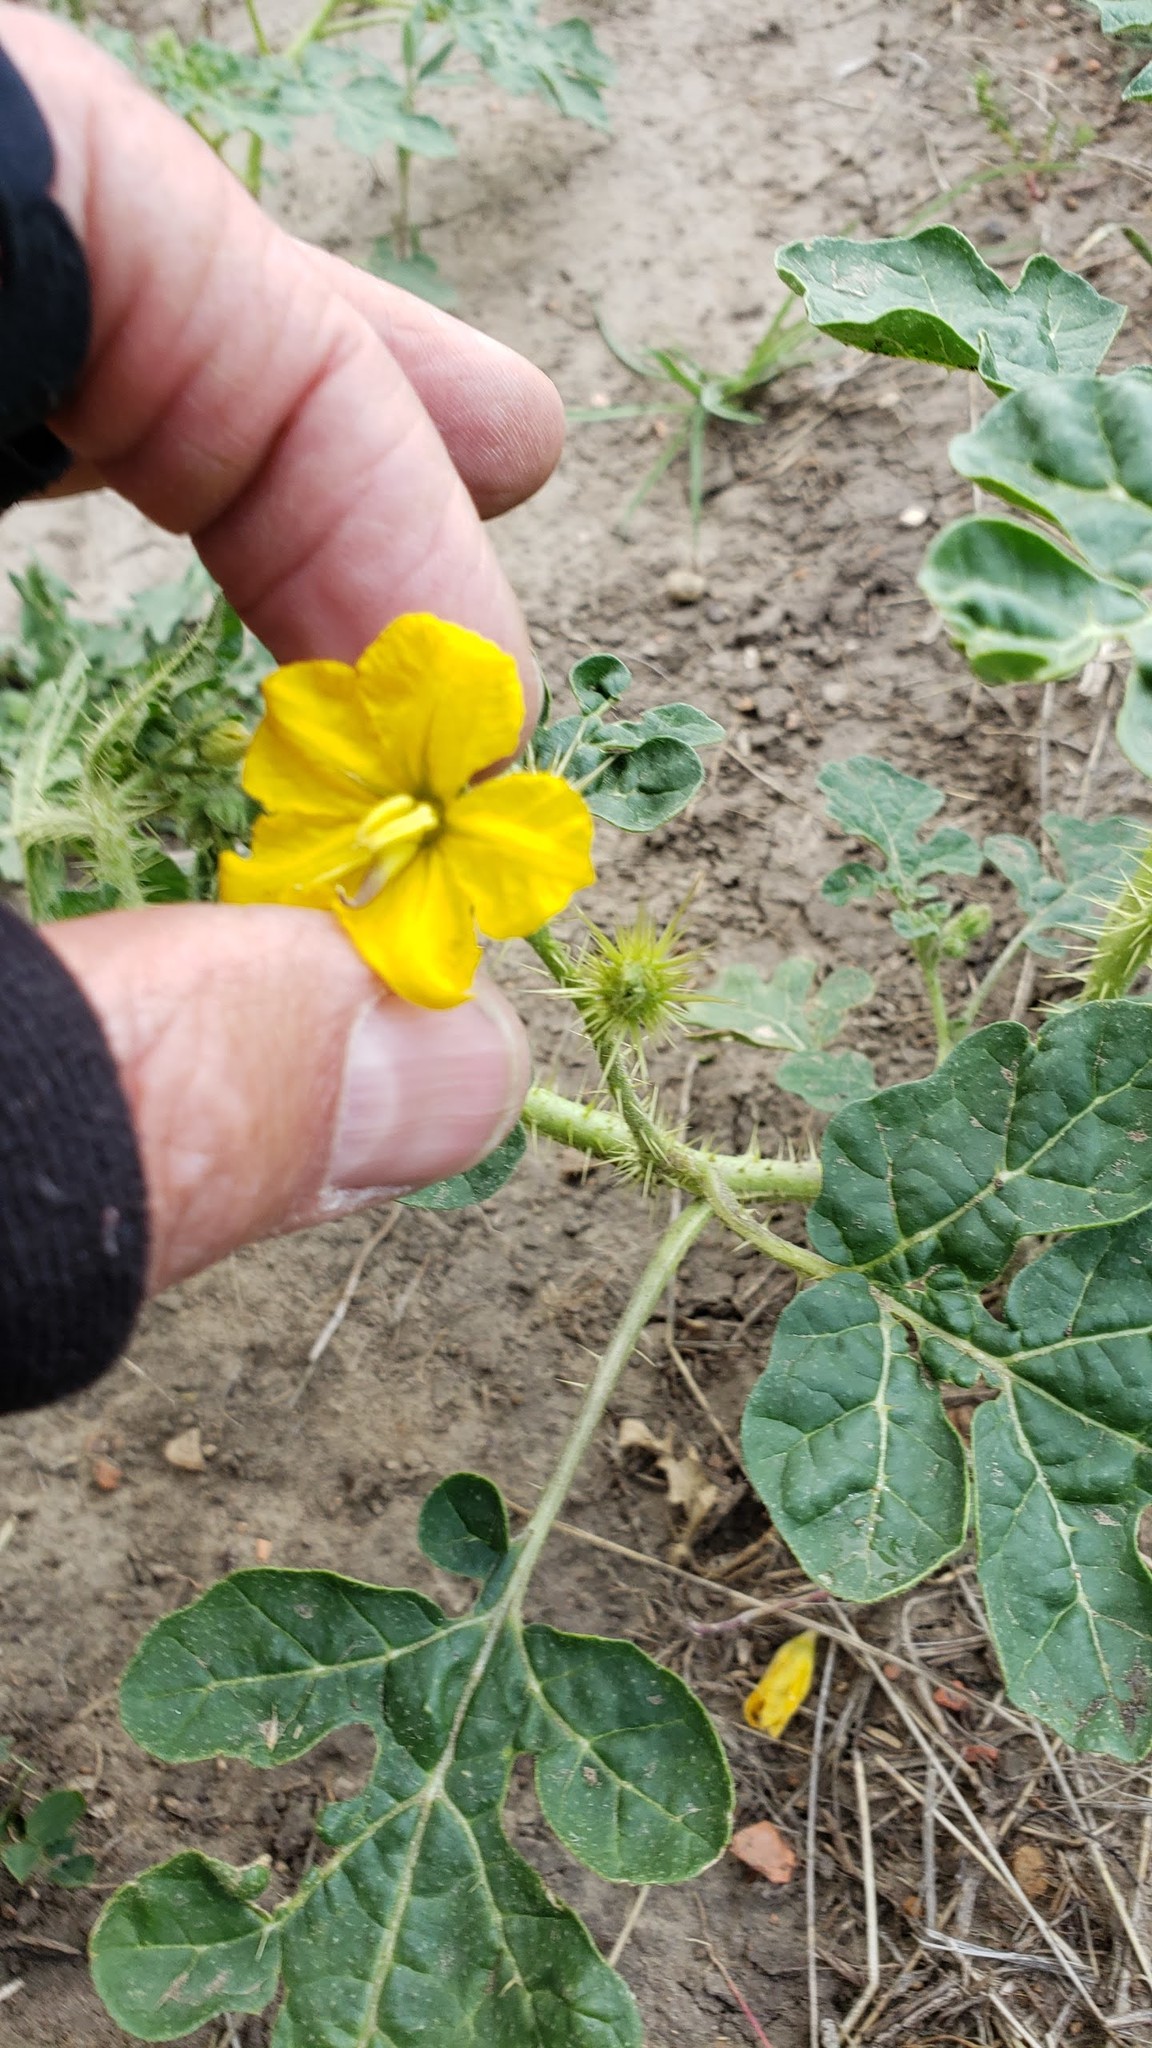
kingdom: Plantae
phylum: Tracheophyta
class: Magnoliopsida
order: Solanales
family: Solanaceae
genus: Solanum
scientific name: Solanum angustifolium
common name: Buffalobur nightshade
